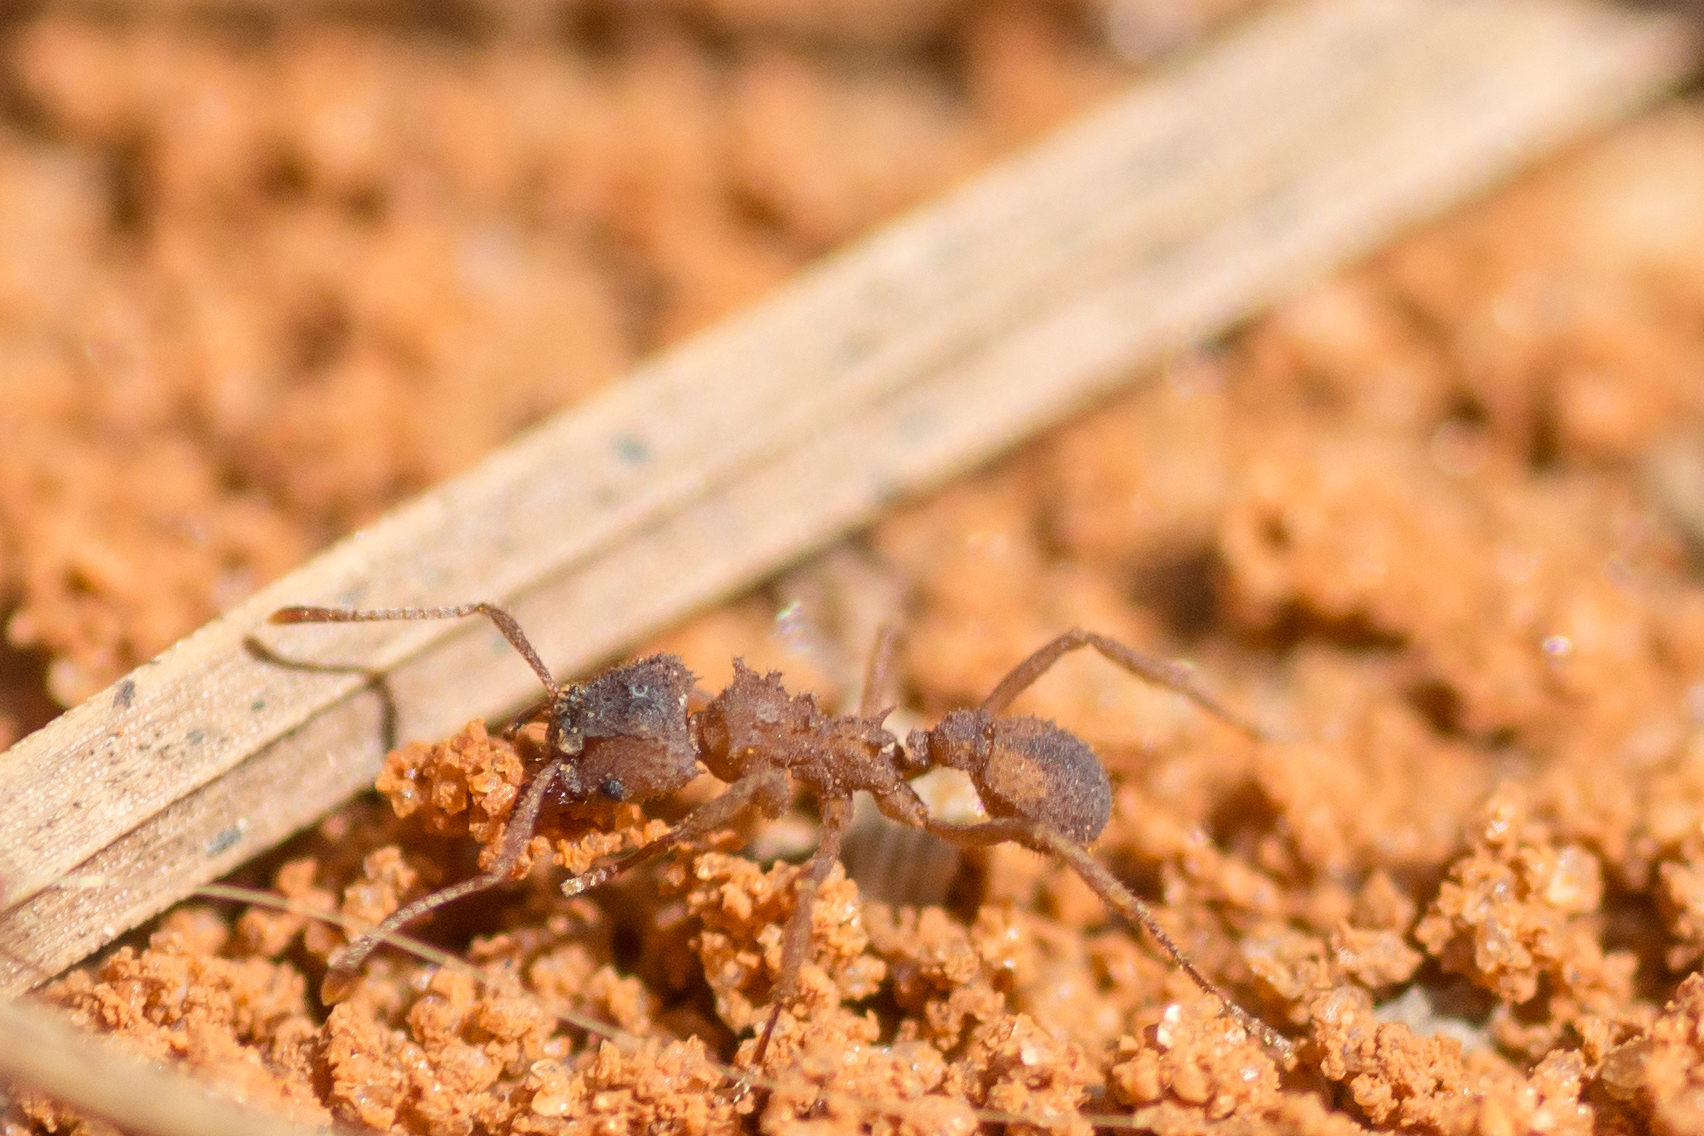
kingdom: Animalia
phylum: Arthropoda
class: Insecta
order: Hymenoptera
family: Formicidae
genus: Trachymyrmex
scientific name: Trachymyrmex septentrionalis
